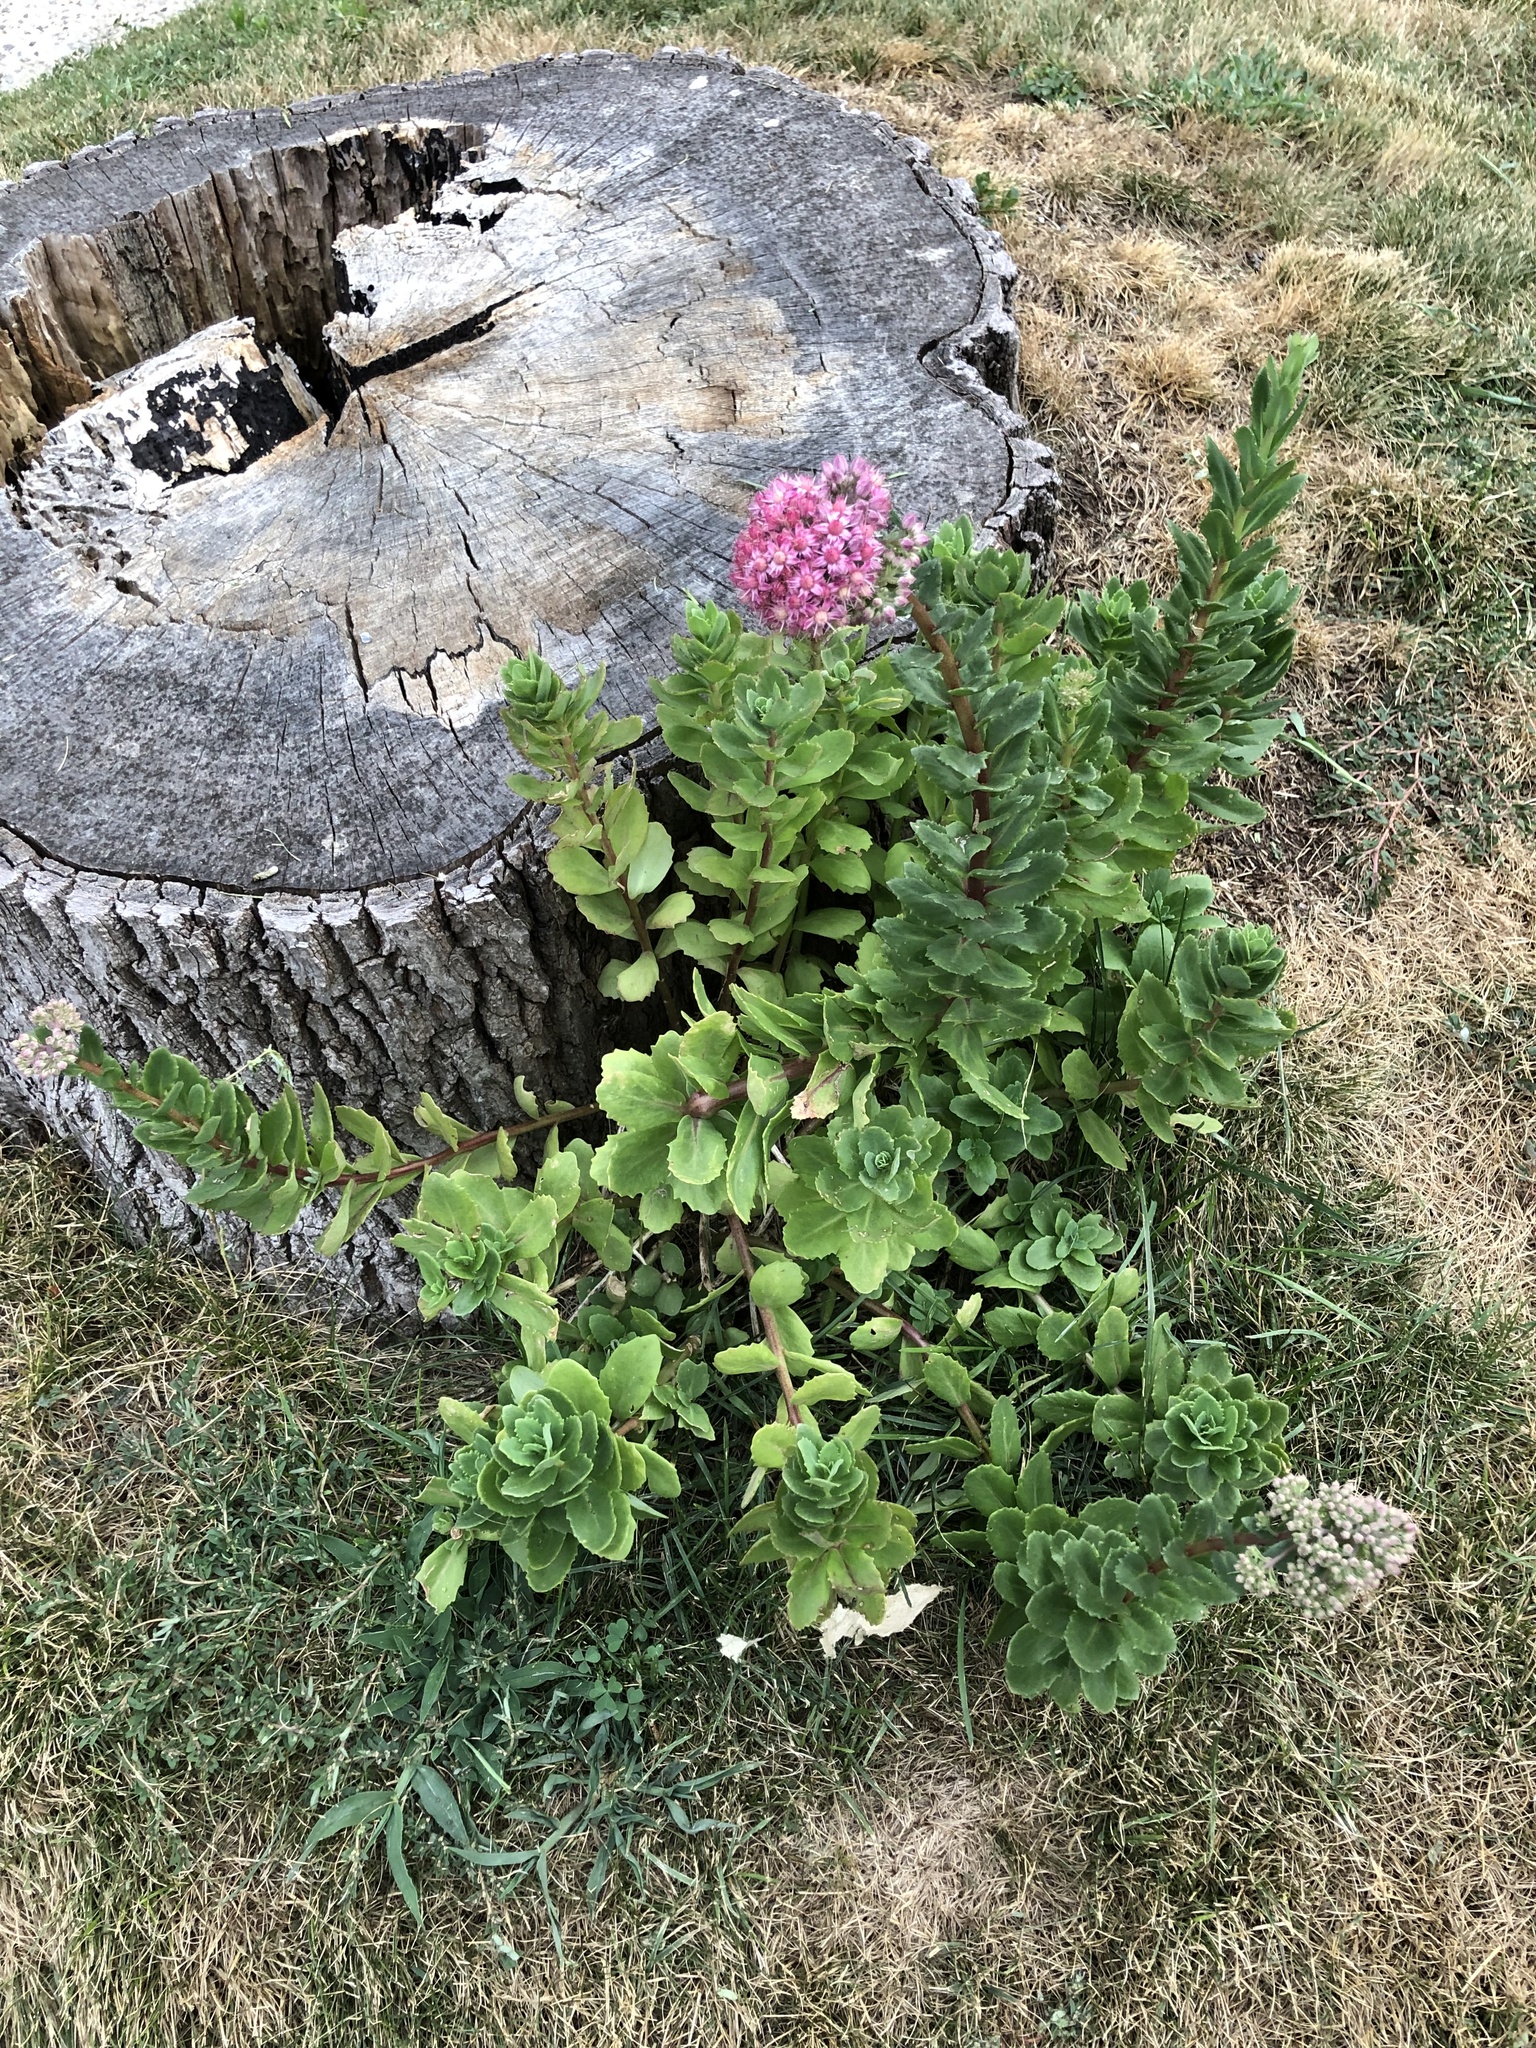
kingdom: Plantae
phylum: Tracheophyta
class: Magnoliopsida
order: Saxifragales
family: Crassulaceae
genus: Hylotelephium
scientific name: Hylotelephium telephium
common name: Live-forever
